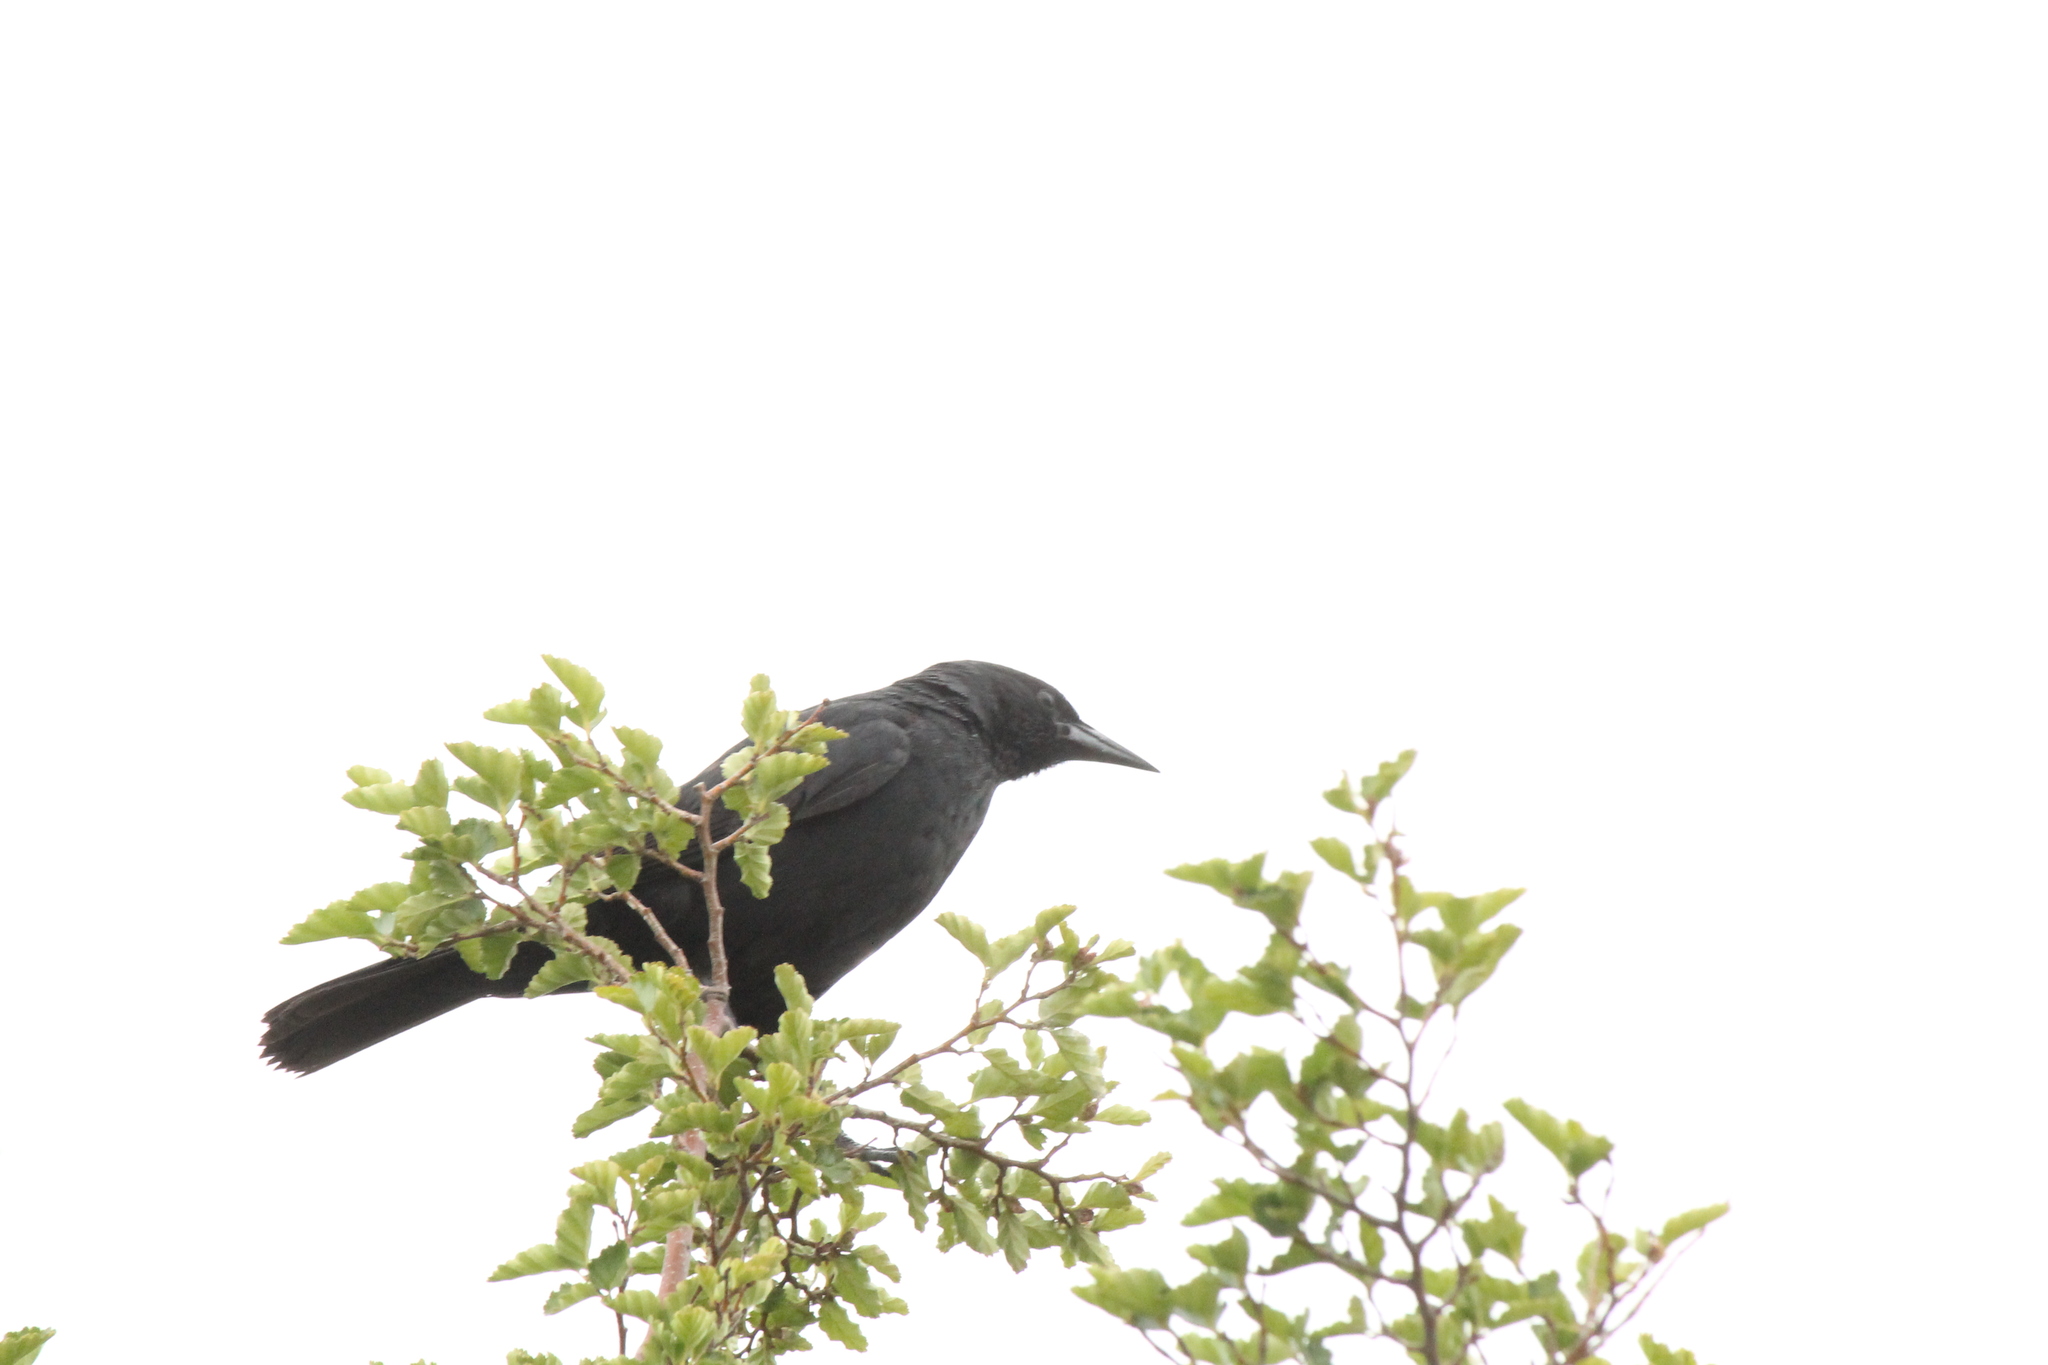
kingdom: Animalia
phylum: Chordata
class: Aves
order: Passeriformes
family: Icteridae
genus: Curaeus
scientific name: Curaeus curaeus
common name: Austral blackbird
